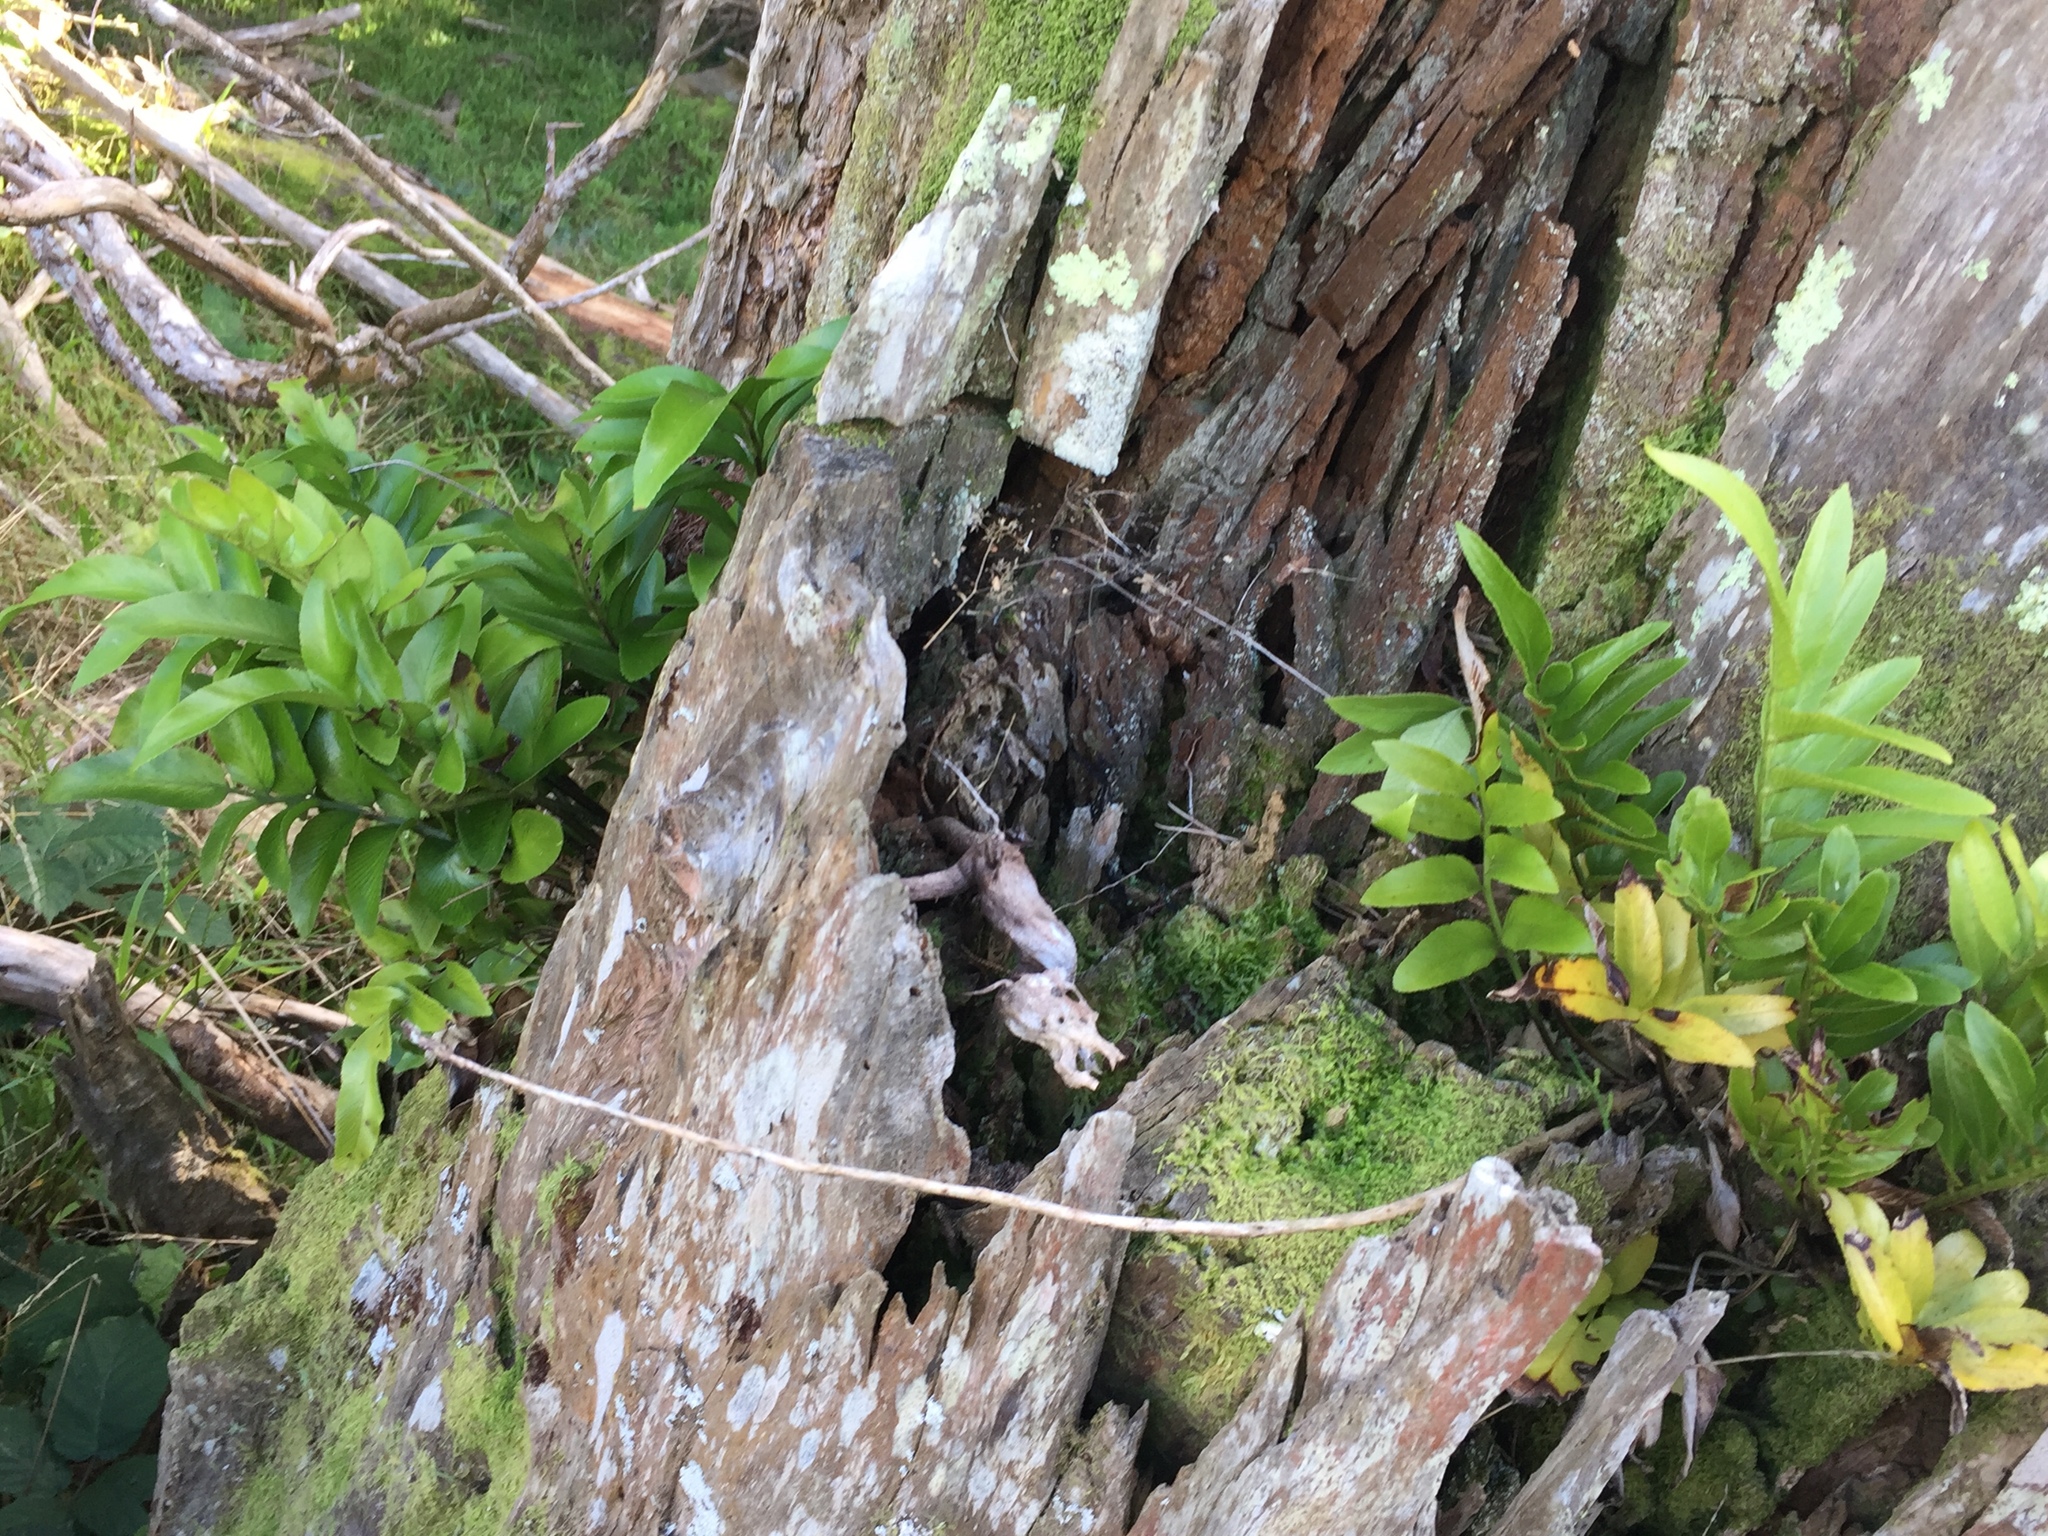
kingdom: Plantae
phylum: Tracheophyta
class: Polypodiopsida
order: Polypodiales
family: Aspleniaceae
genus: Asplenium
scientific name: Asplenium oblongifolium
